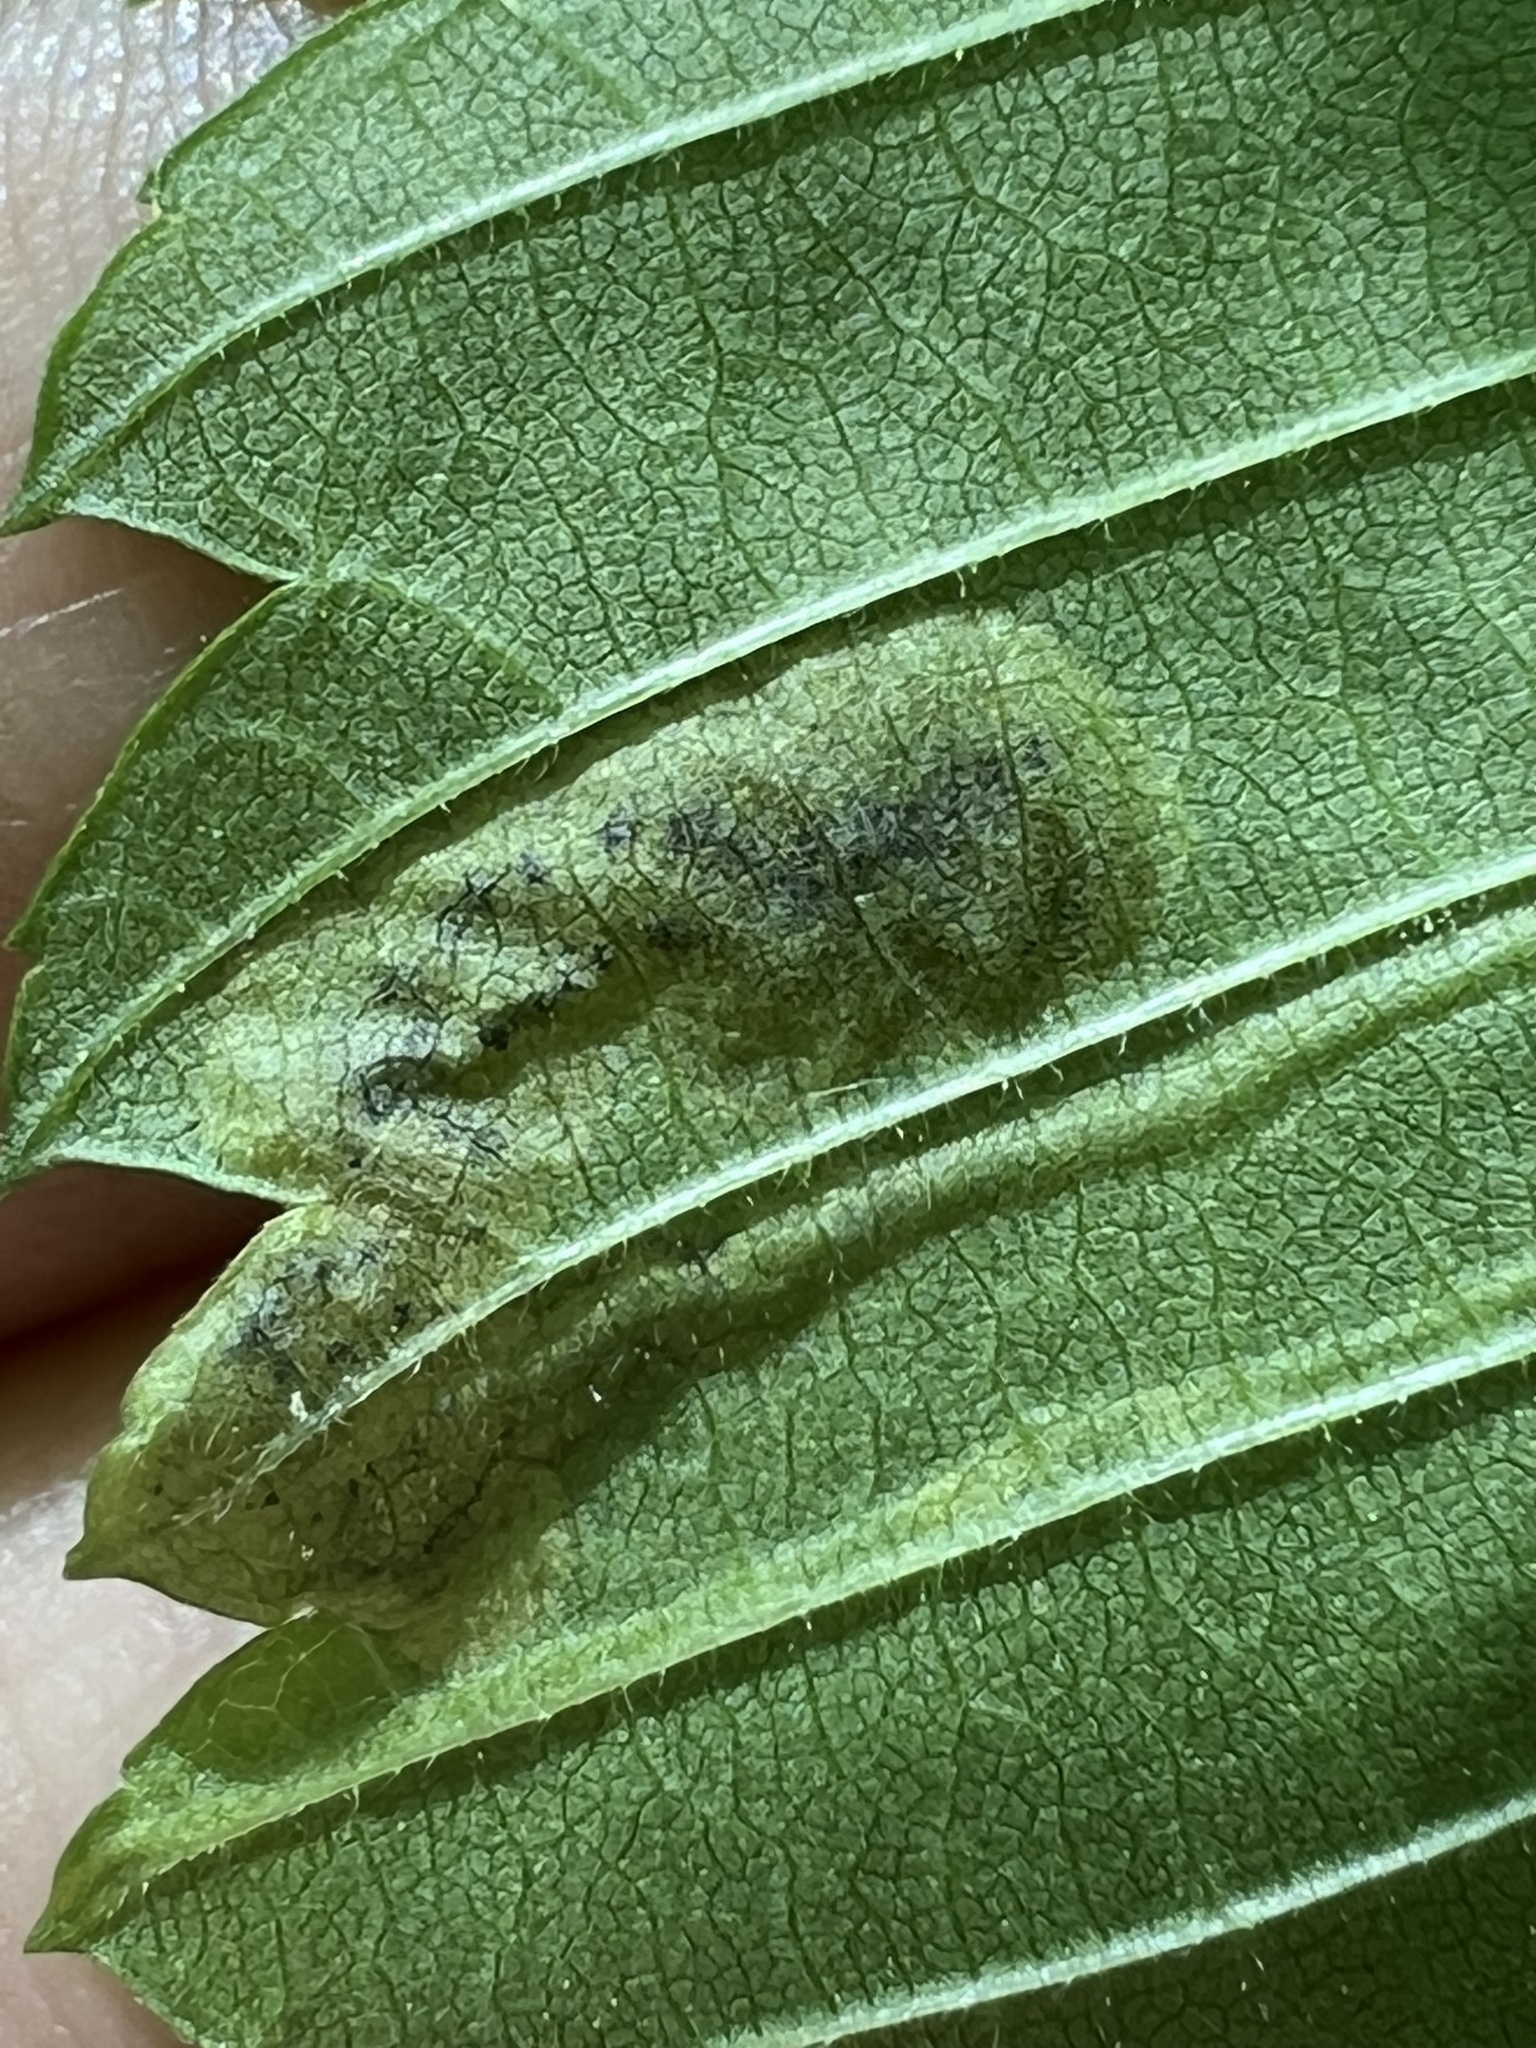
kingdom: Animalia
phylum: Arthropoda
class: Insecta
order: Diptera
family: Agromyzidae
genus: Agromyza
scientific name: Agromyza aristata
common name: Elm agromyzid leafminer
